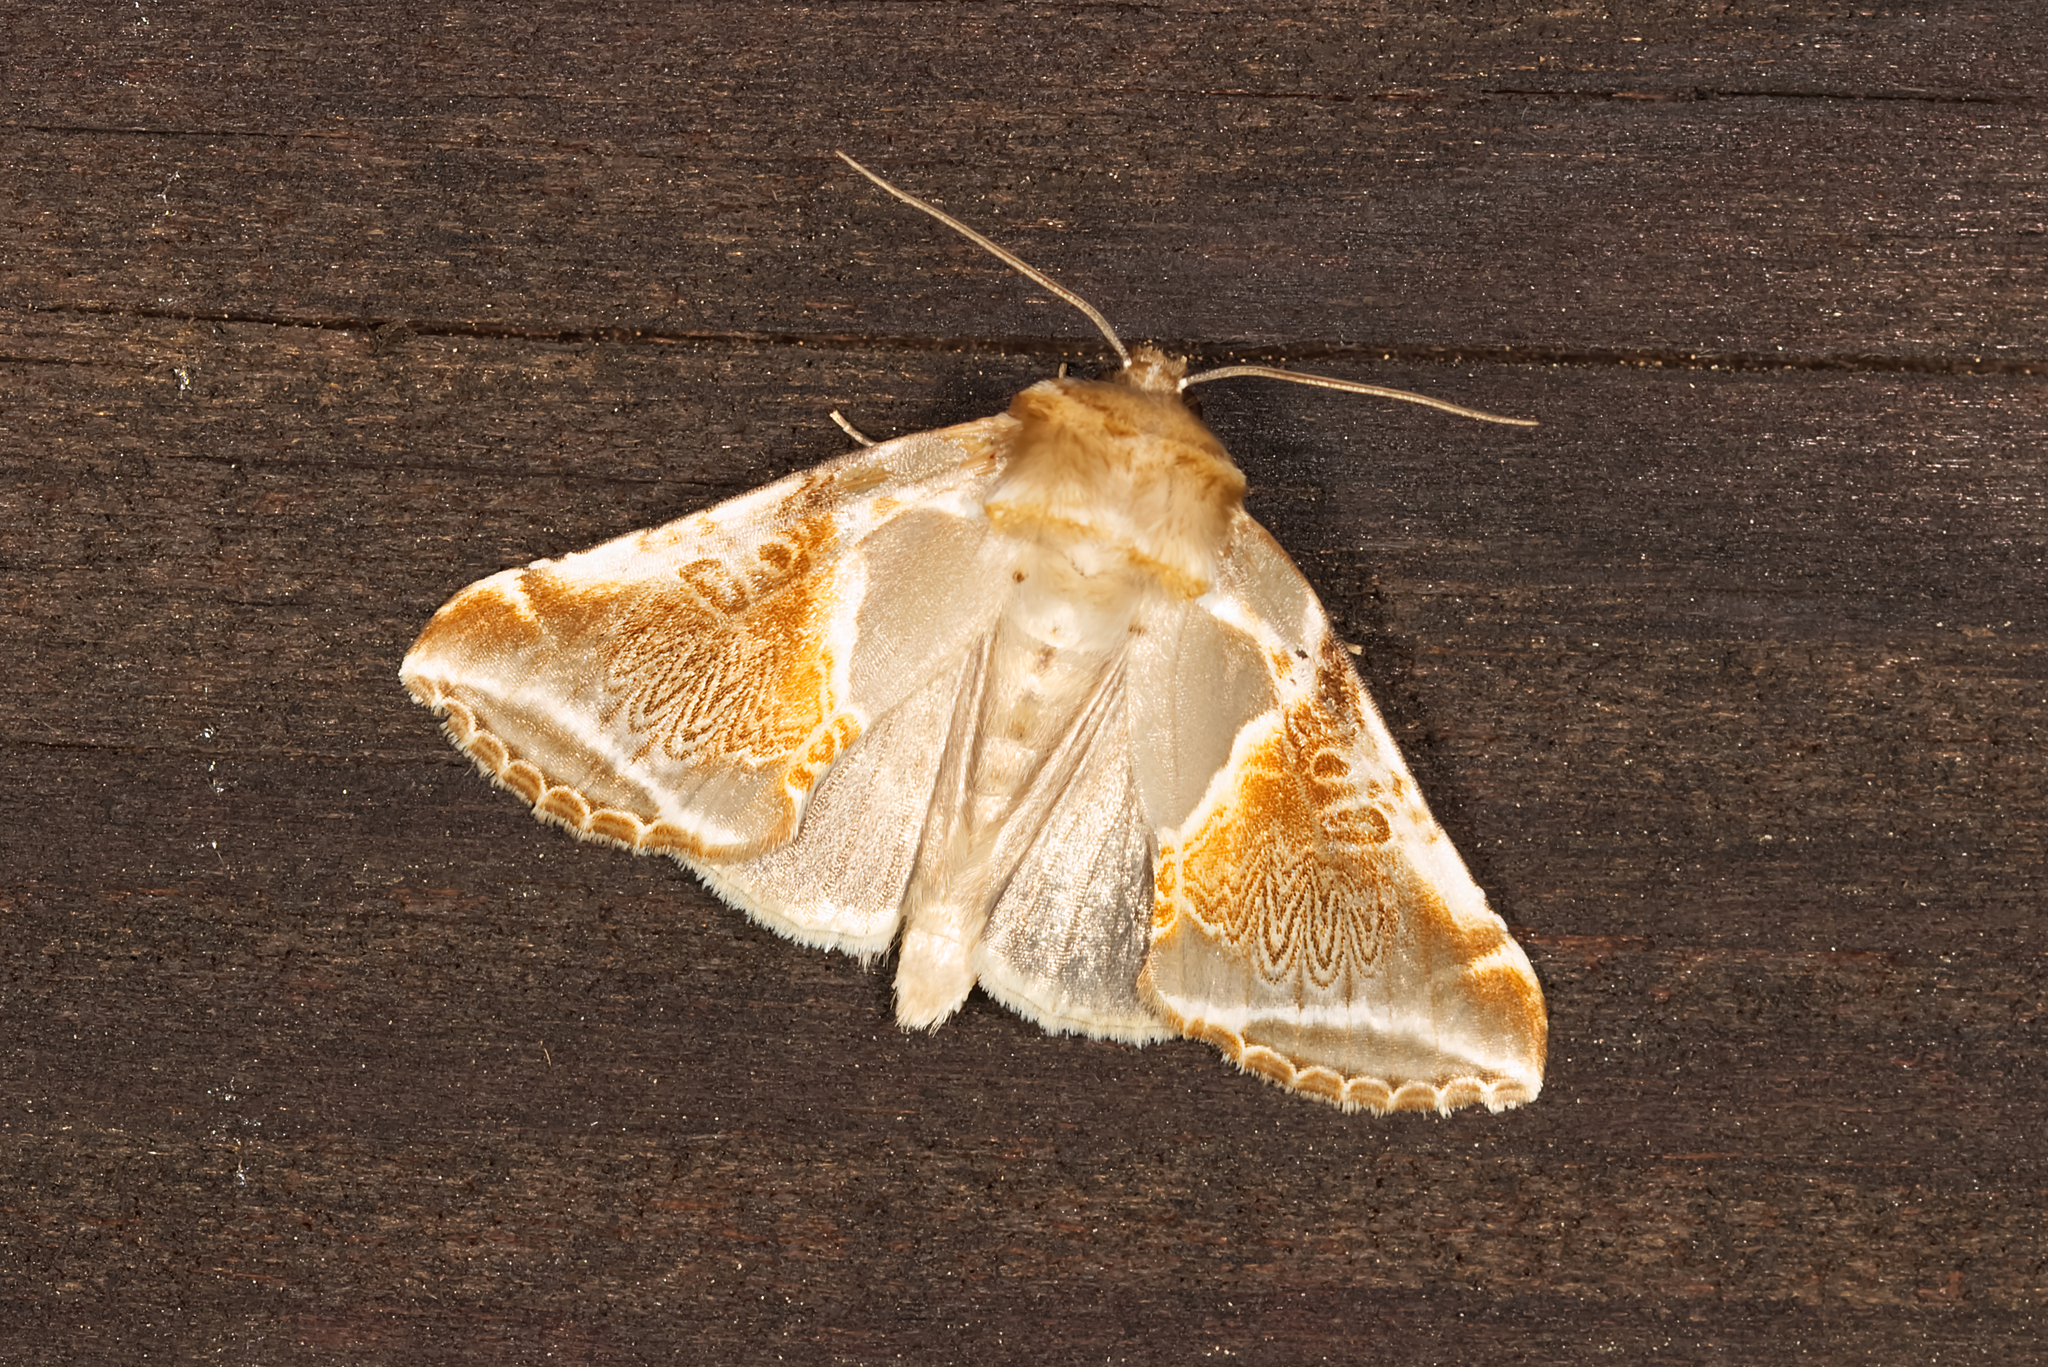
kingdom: Animalia
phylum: Arthropoda
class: Insecta
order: Lepidoptera
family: Drepanidae
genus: Habrosyne
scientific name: Habrosyne pyritoides
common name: Buff arches
